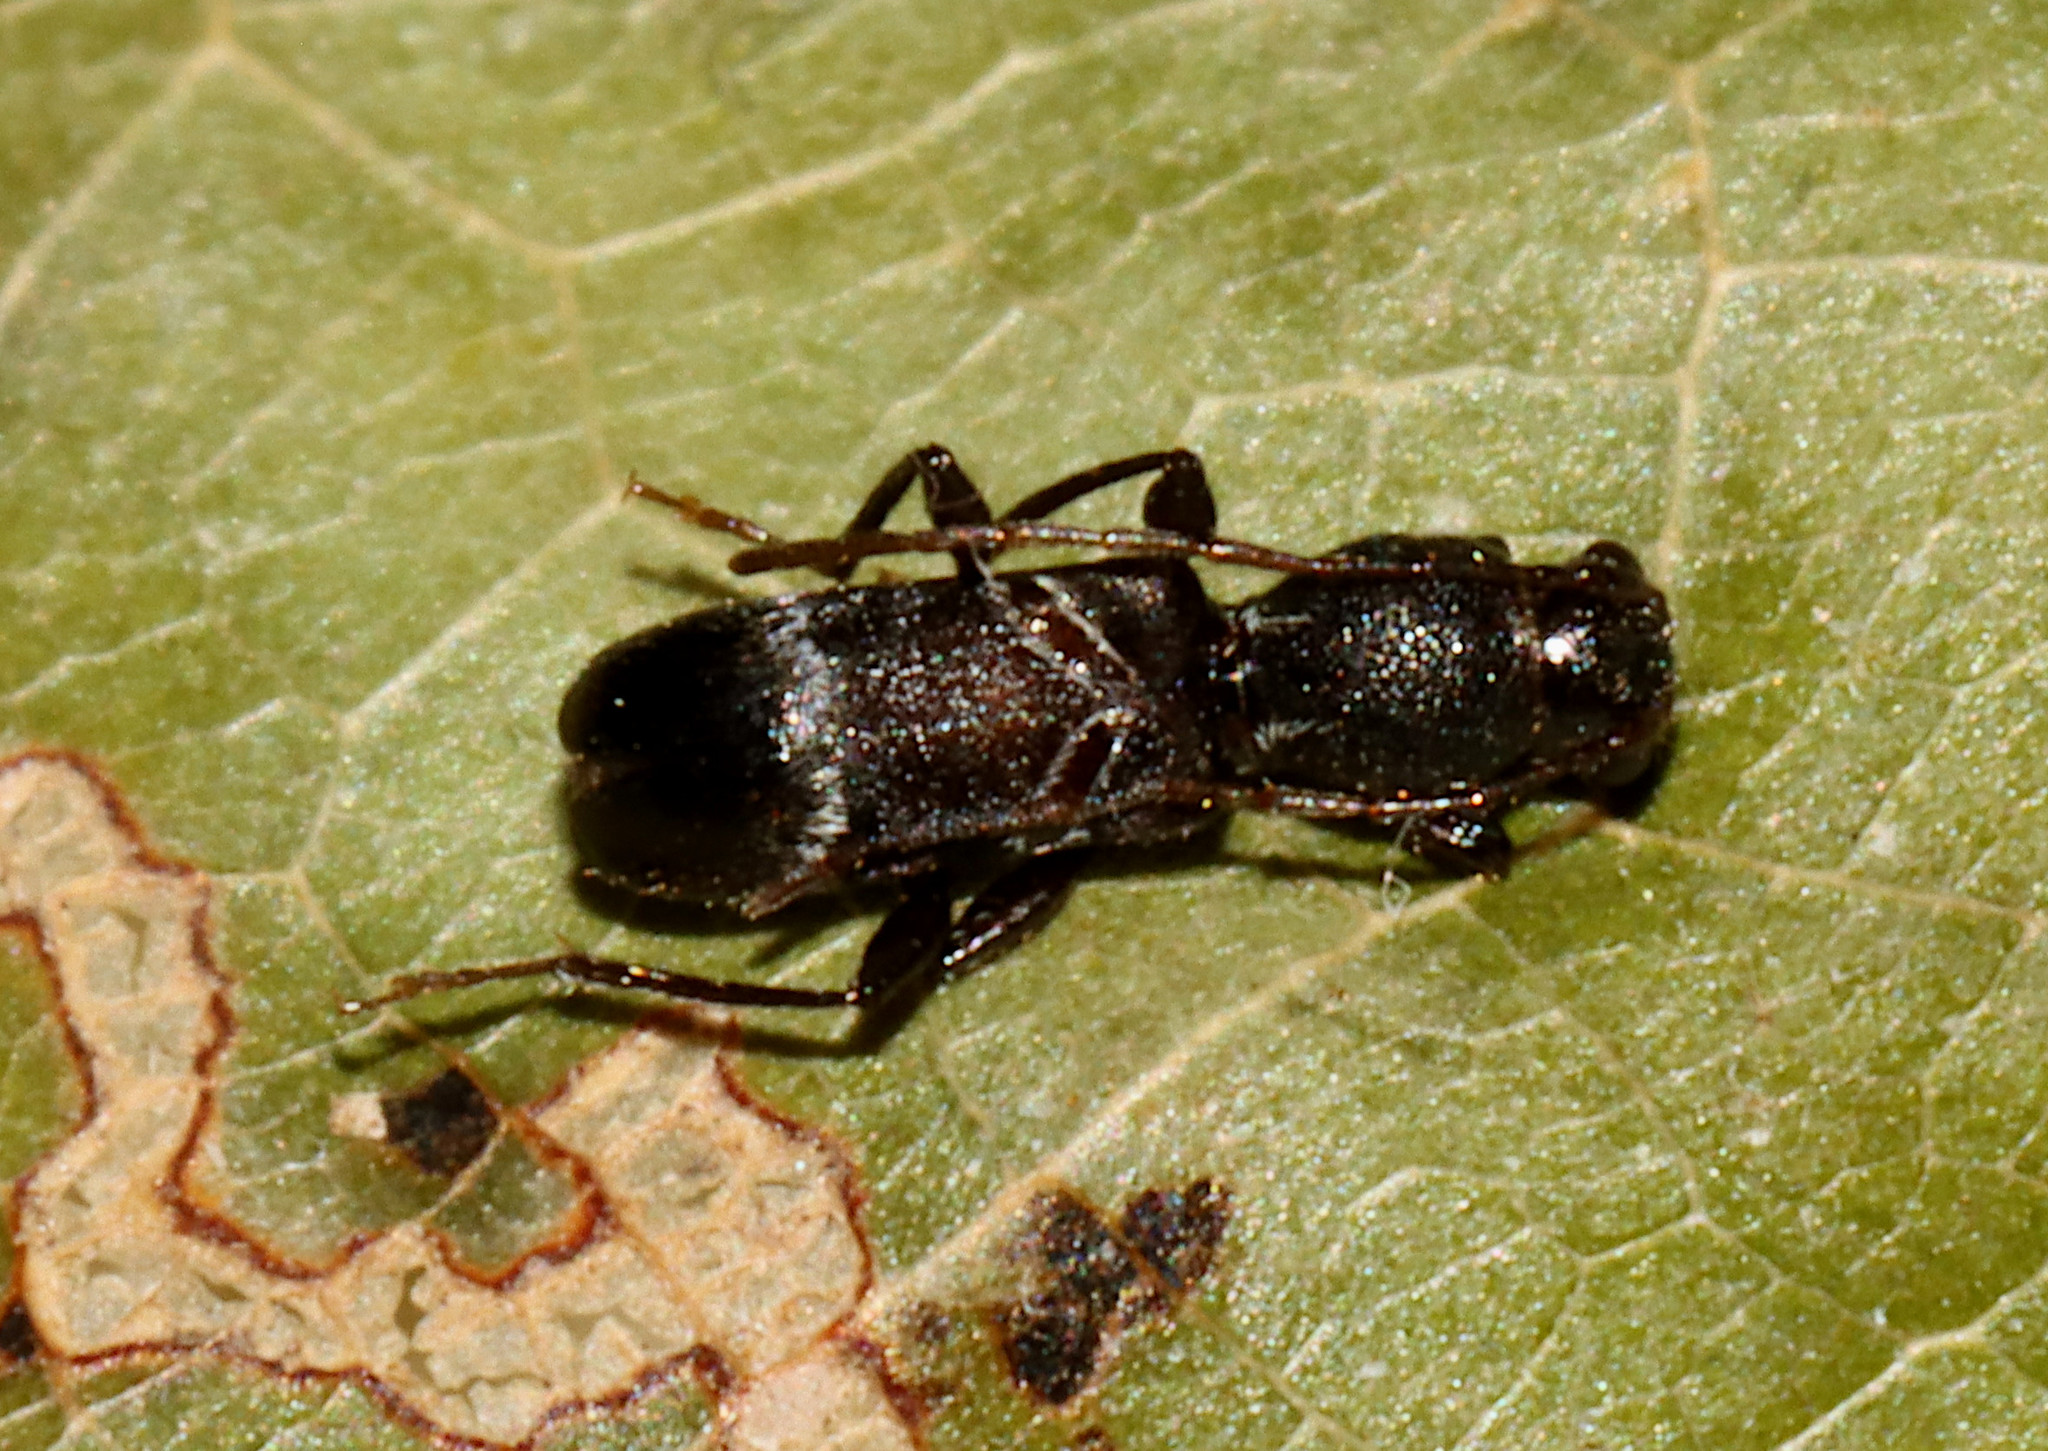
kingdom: Animalia
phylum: Arthropoda
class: Insecta
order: Coleoptera
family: Cerambycidae
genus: Tilloclytus
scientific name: Tilloclytus geminatus
